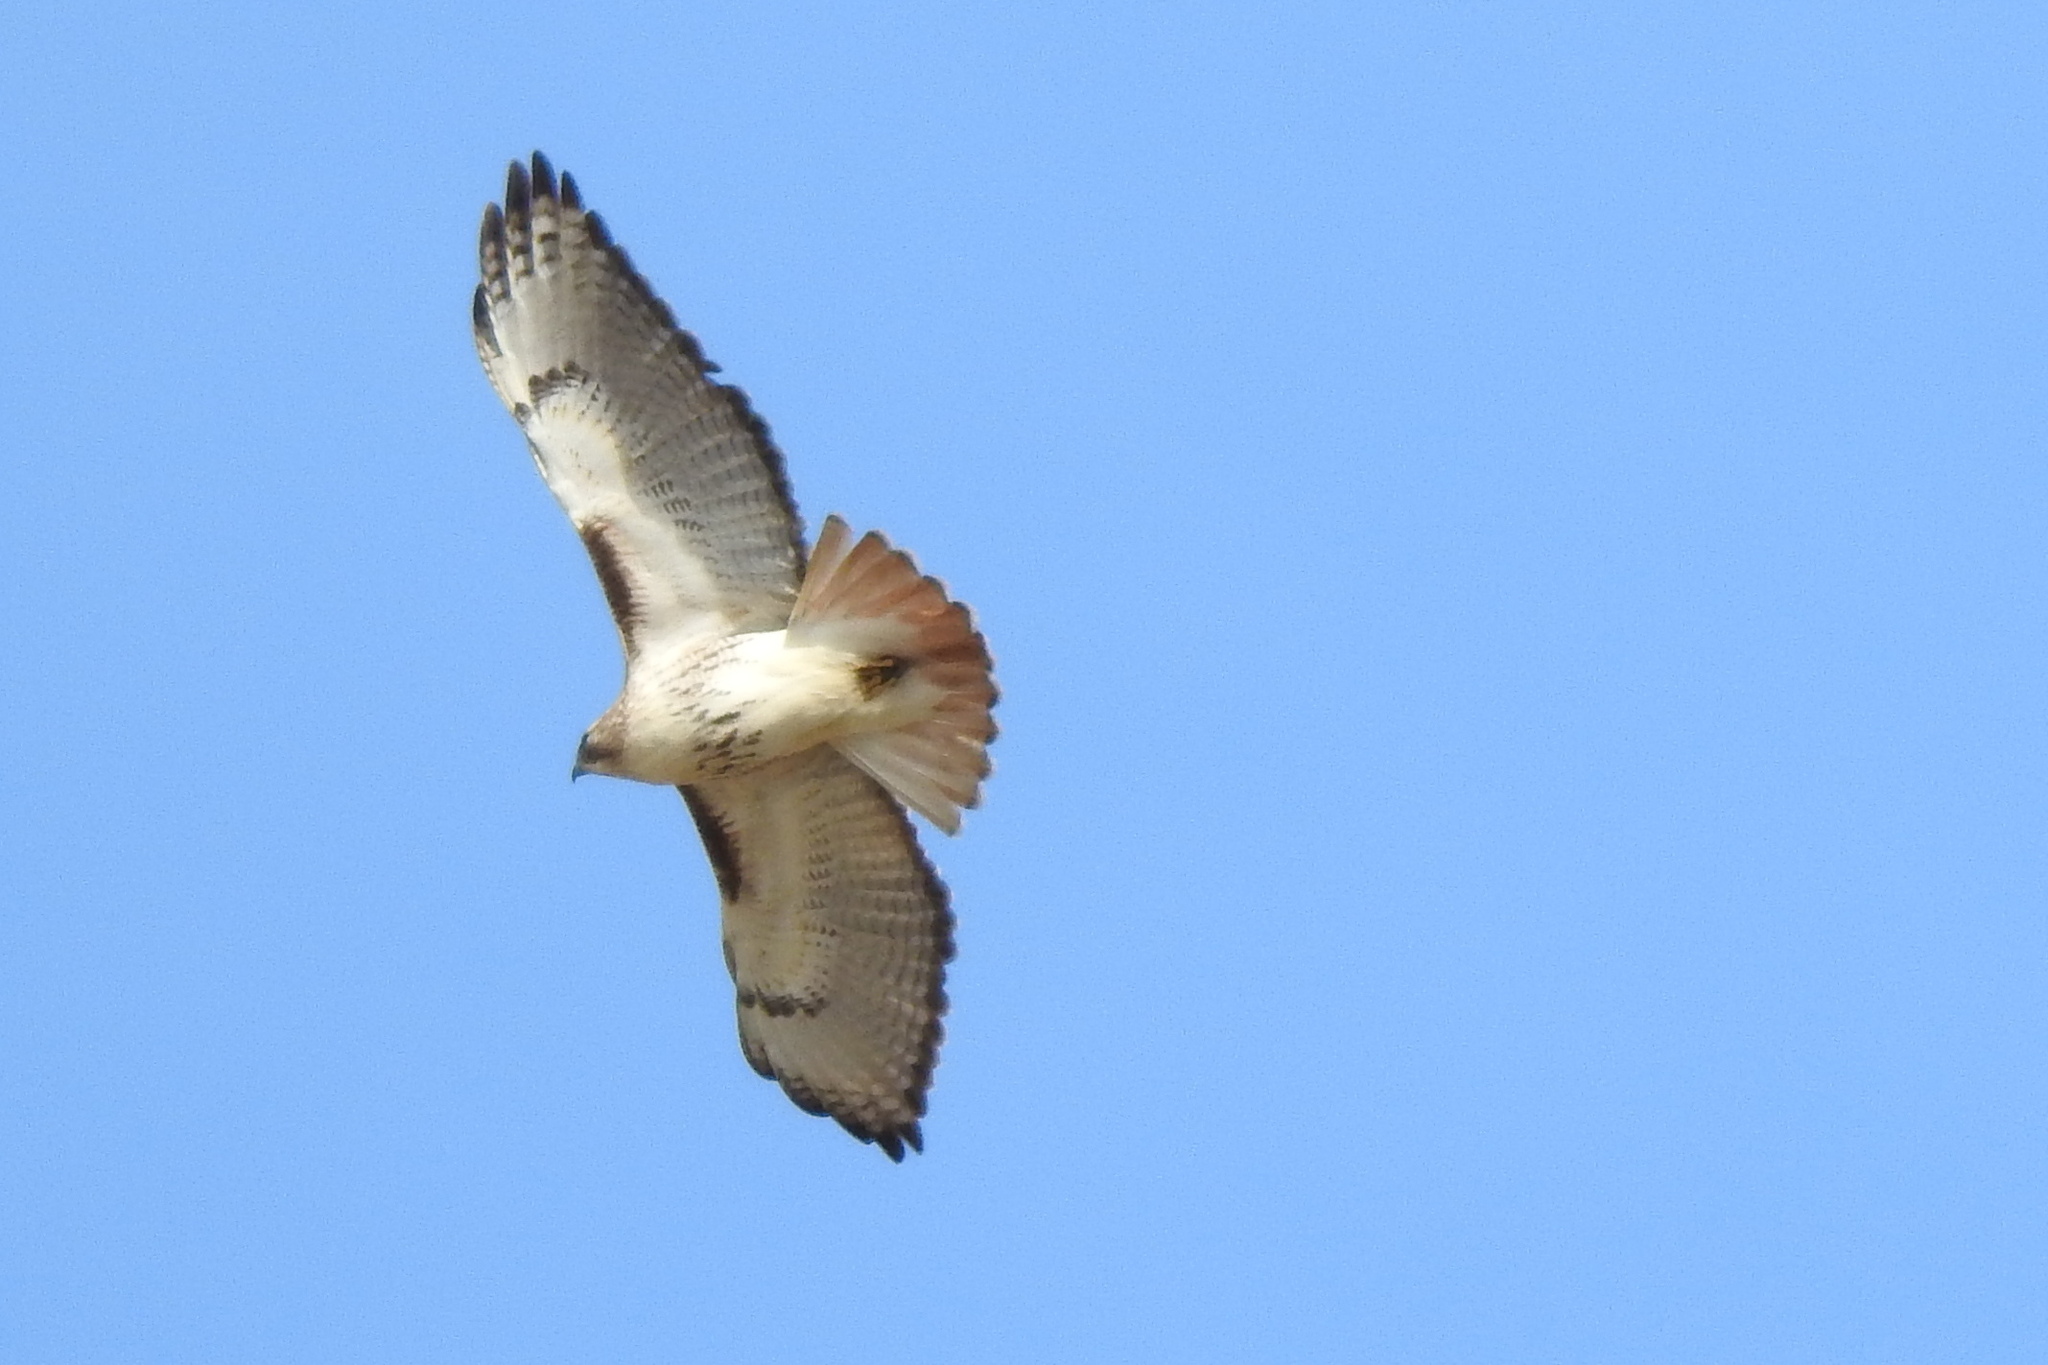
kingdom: Animalia
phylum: Chordata
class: Aves
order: Accipitriformes
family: Accipitridae
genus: Buteo
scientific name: Buteo jamaicensis
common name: Red-tailed hawk
